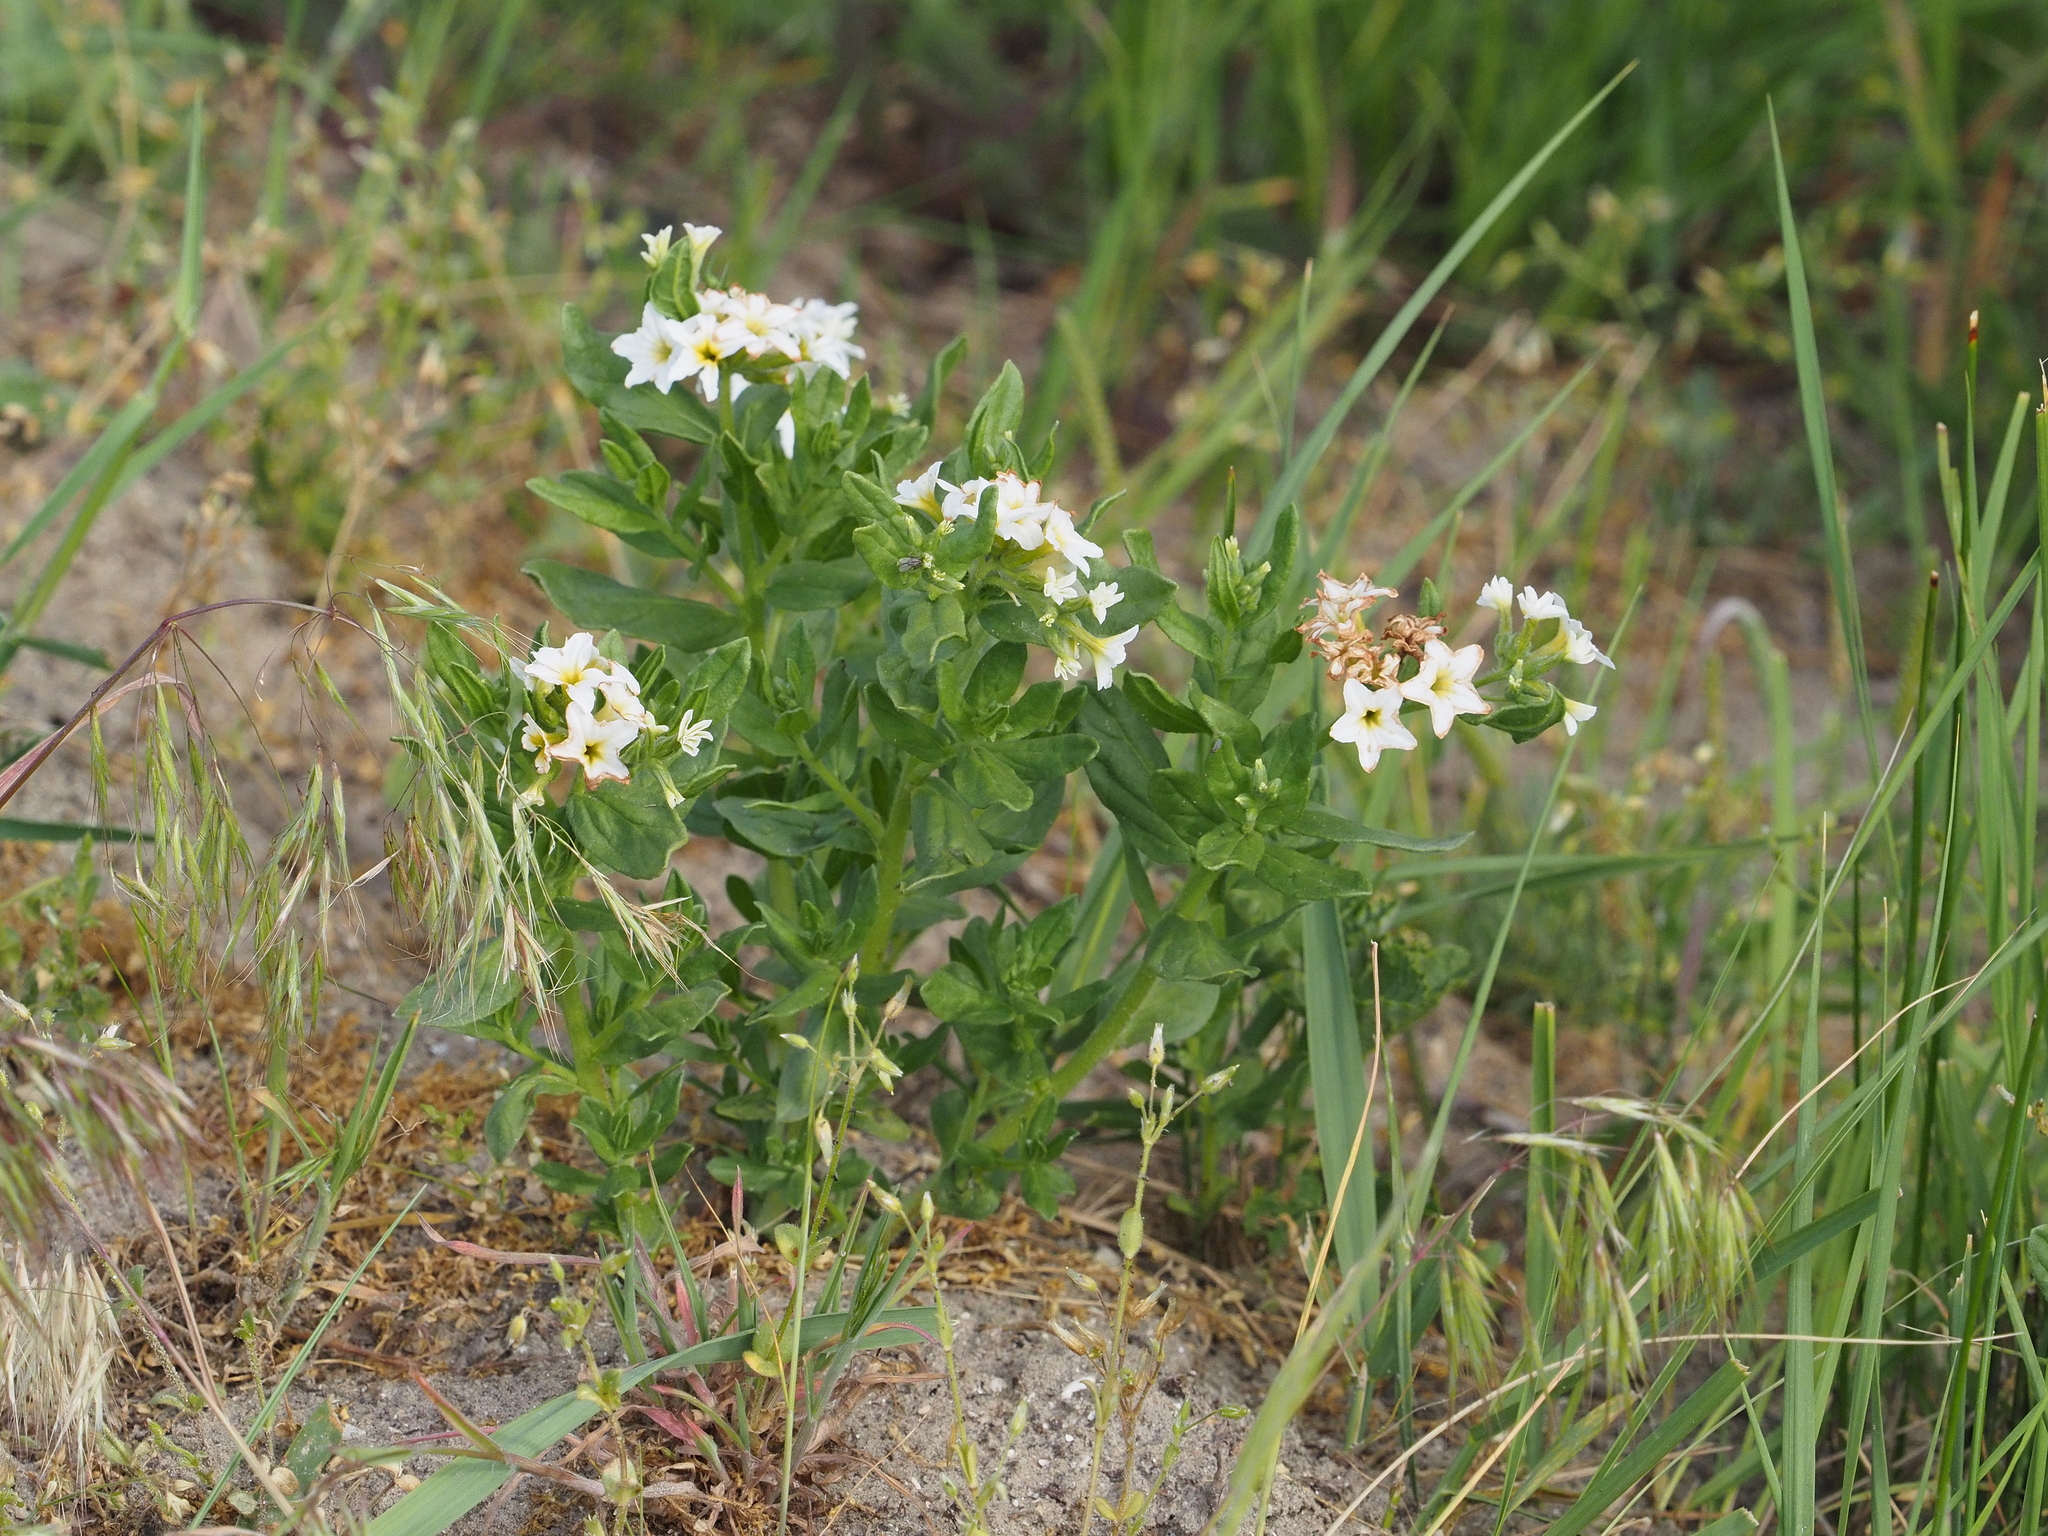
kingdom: Plantae
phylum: Tracheophyta
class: Magnoliopsida
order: Boraginales
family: Heliotropiaceae
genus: Tournefortia
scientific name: Tournefortia sibirica
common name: Siberian sea rosemary
